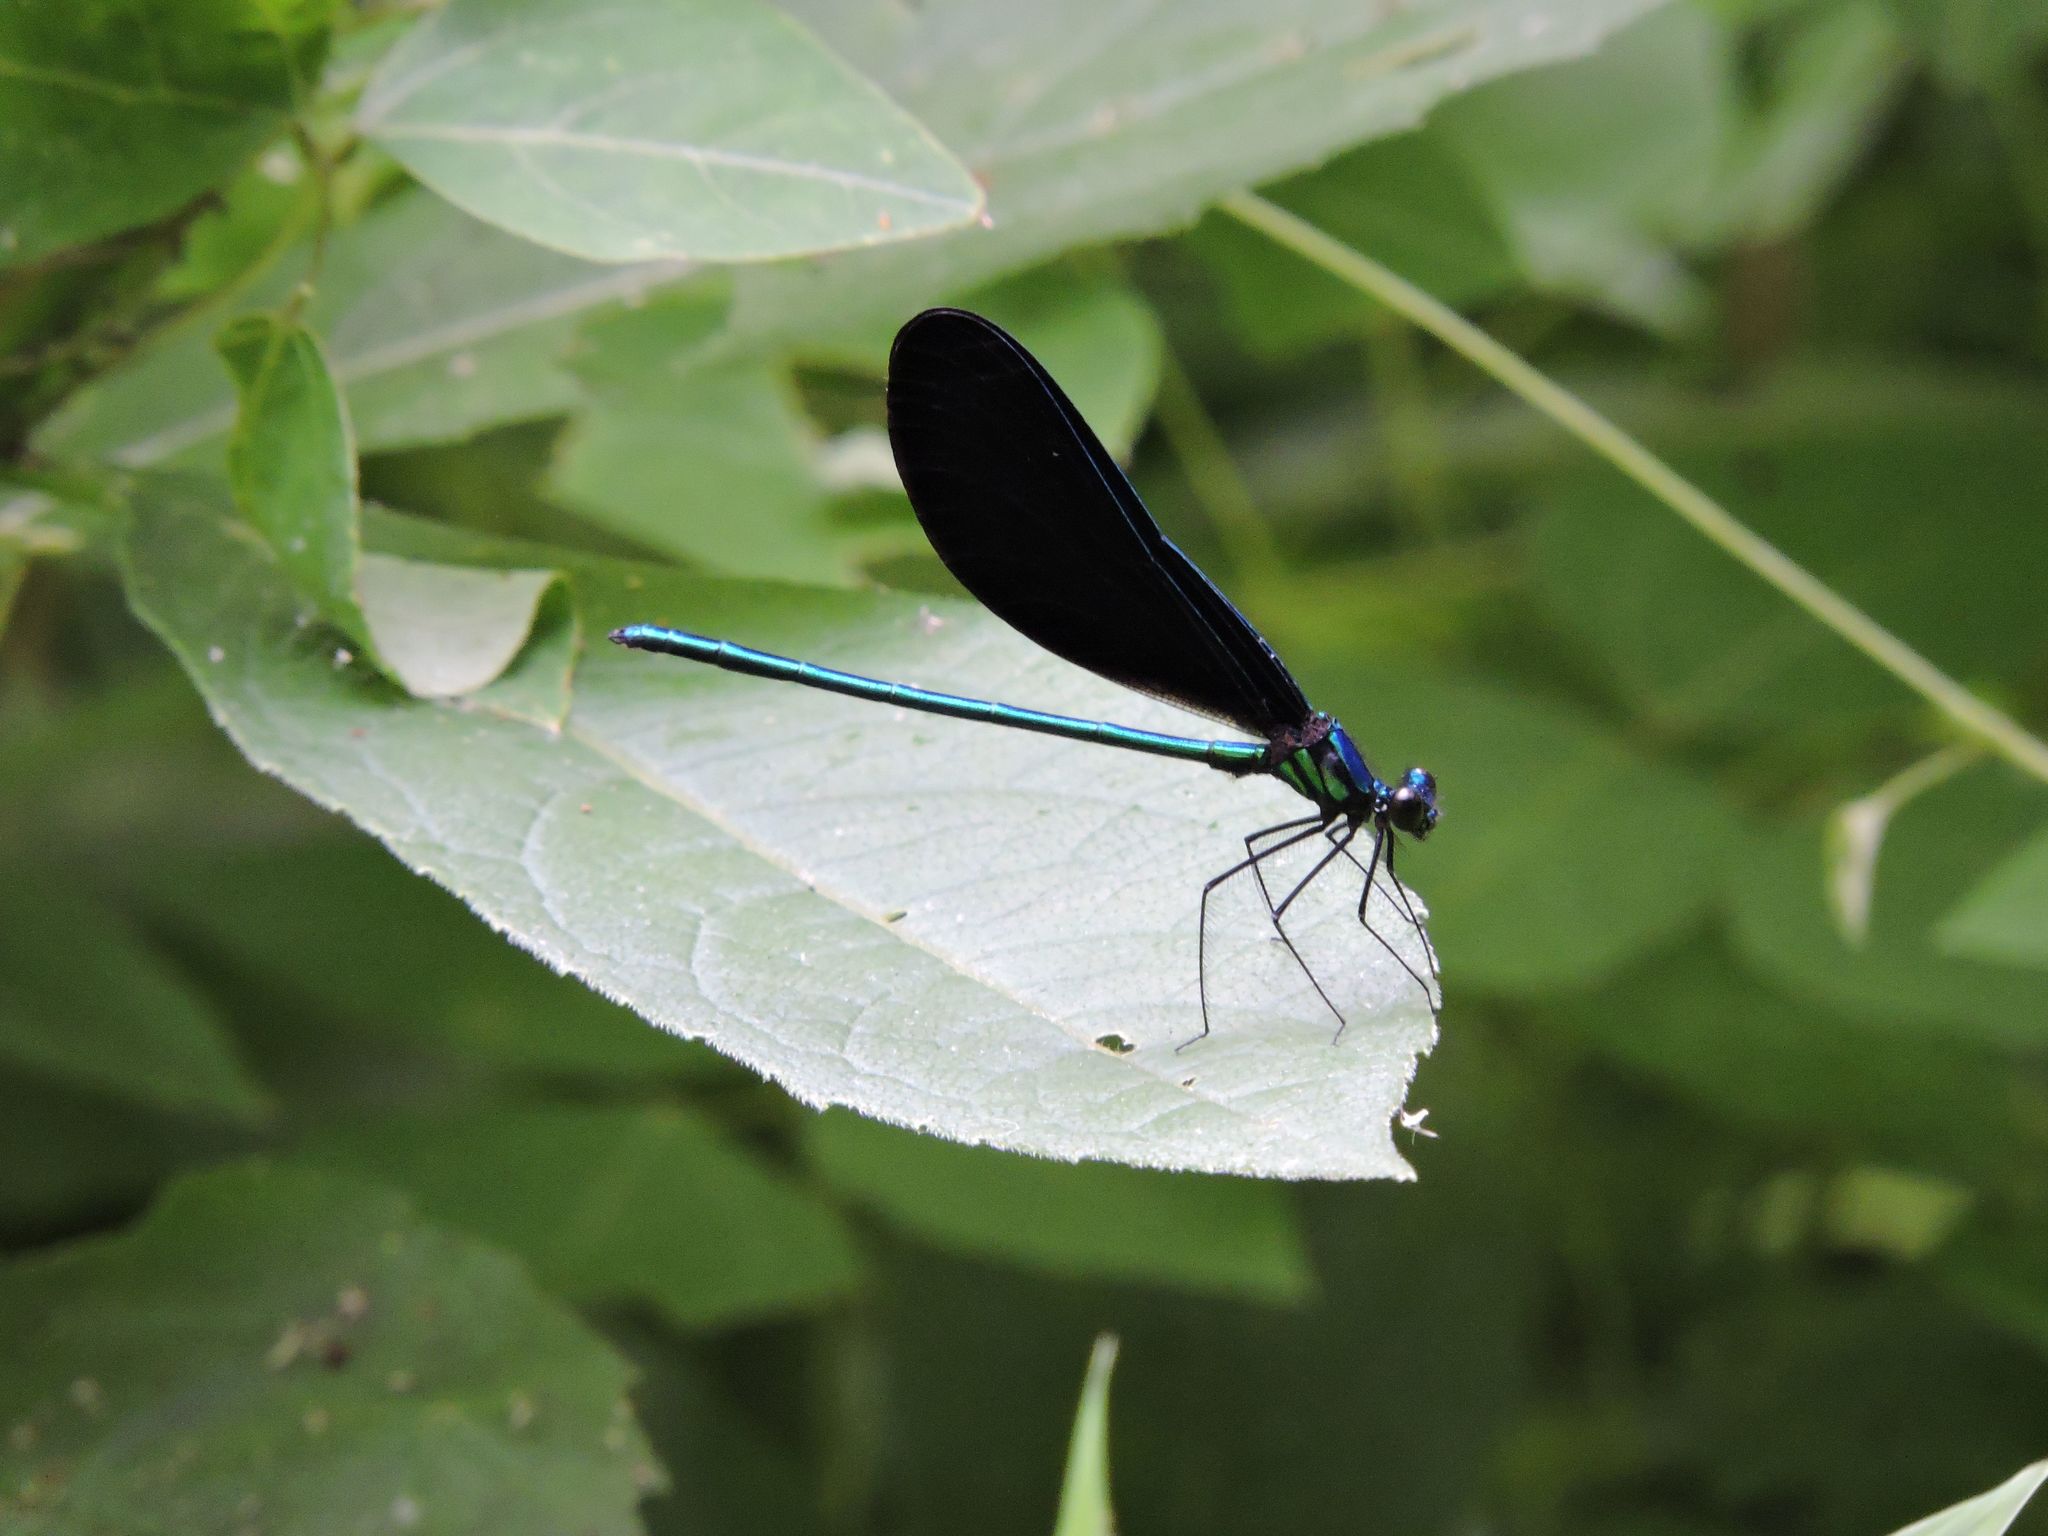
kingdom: Animalia
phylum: Arthropoda
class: Insecta
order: Odonata
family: Calopterygidae
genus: Calopteryx
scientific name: Calopteryx maculata
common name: Ebony jewelwing
